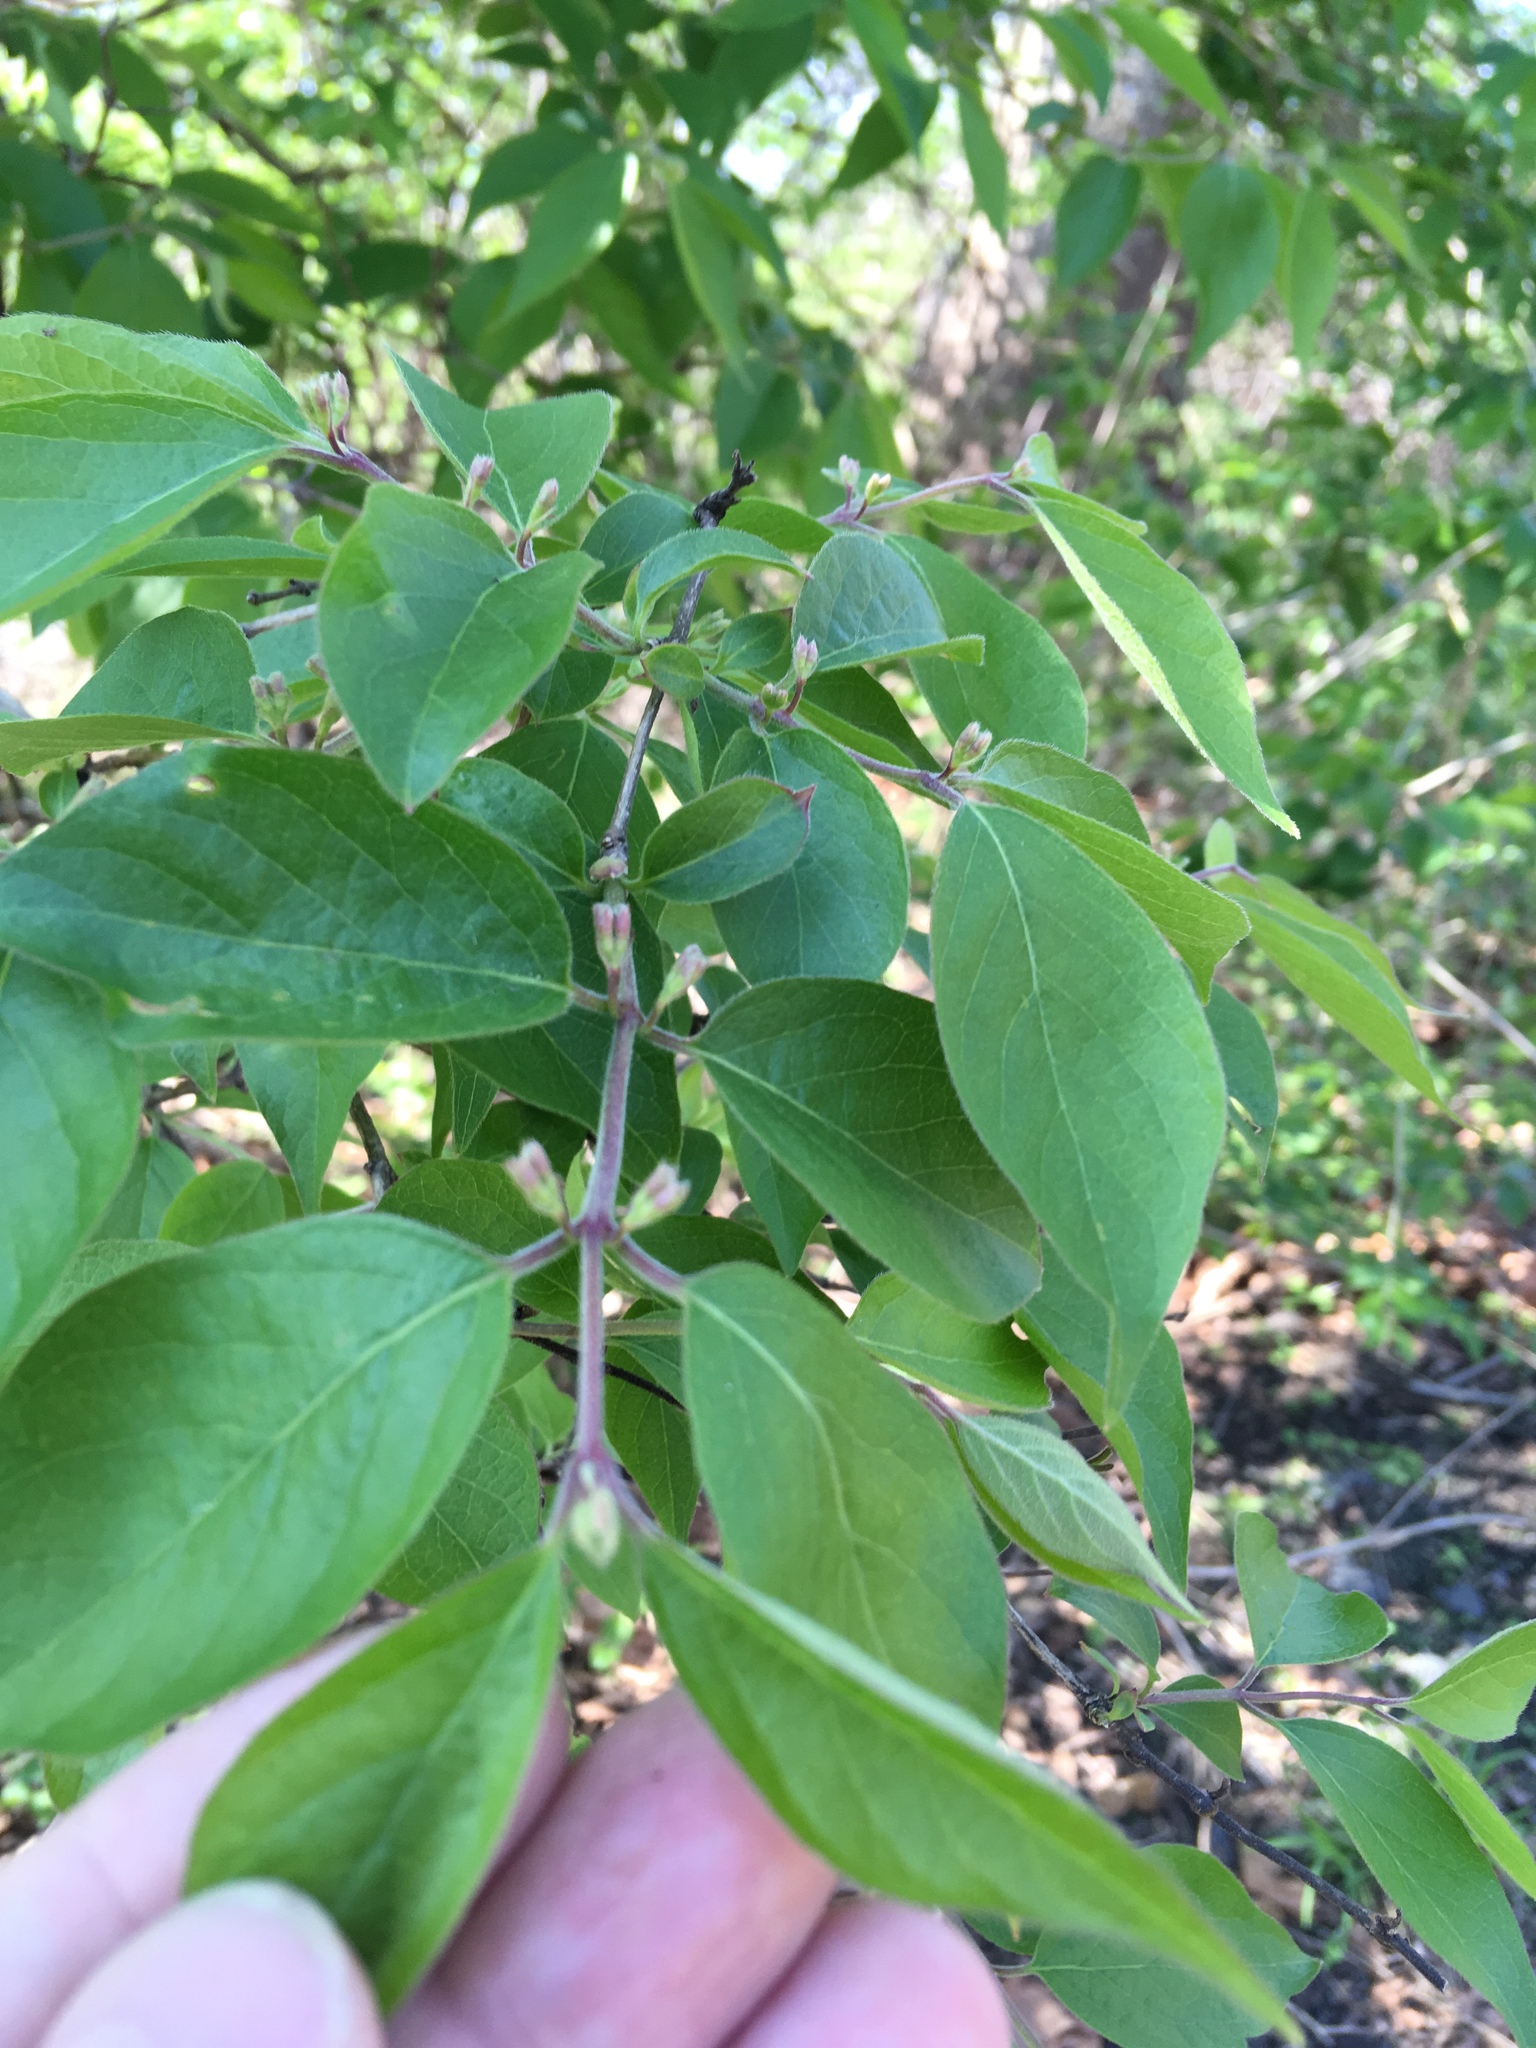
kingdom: Plantae
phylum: Tracheophyta
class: Magnoliopsida
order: Dipsacales
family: Caprifoliaceae
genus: Lonicera
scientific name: Lonicera maackii
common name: Amur honeysuckle
